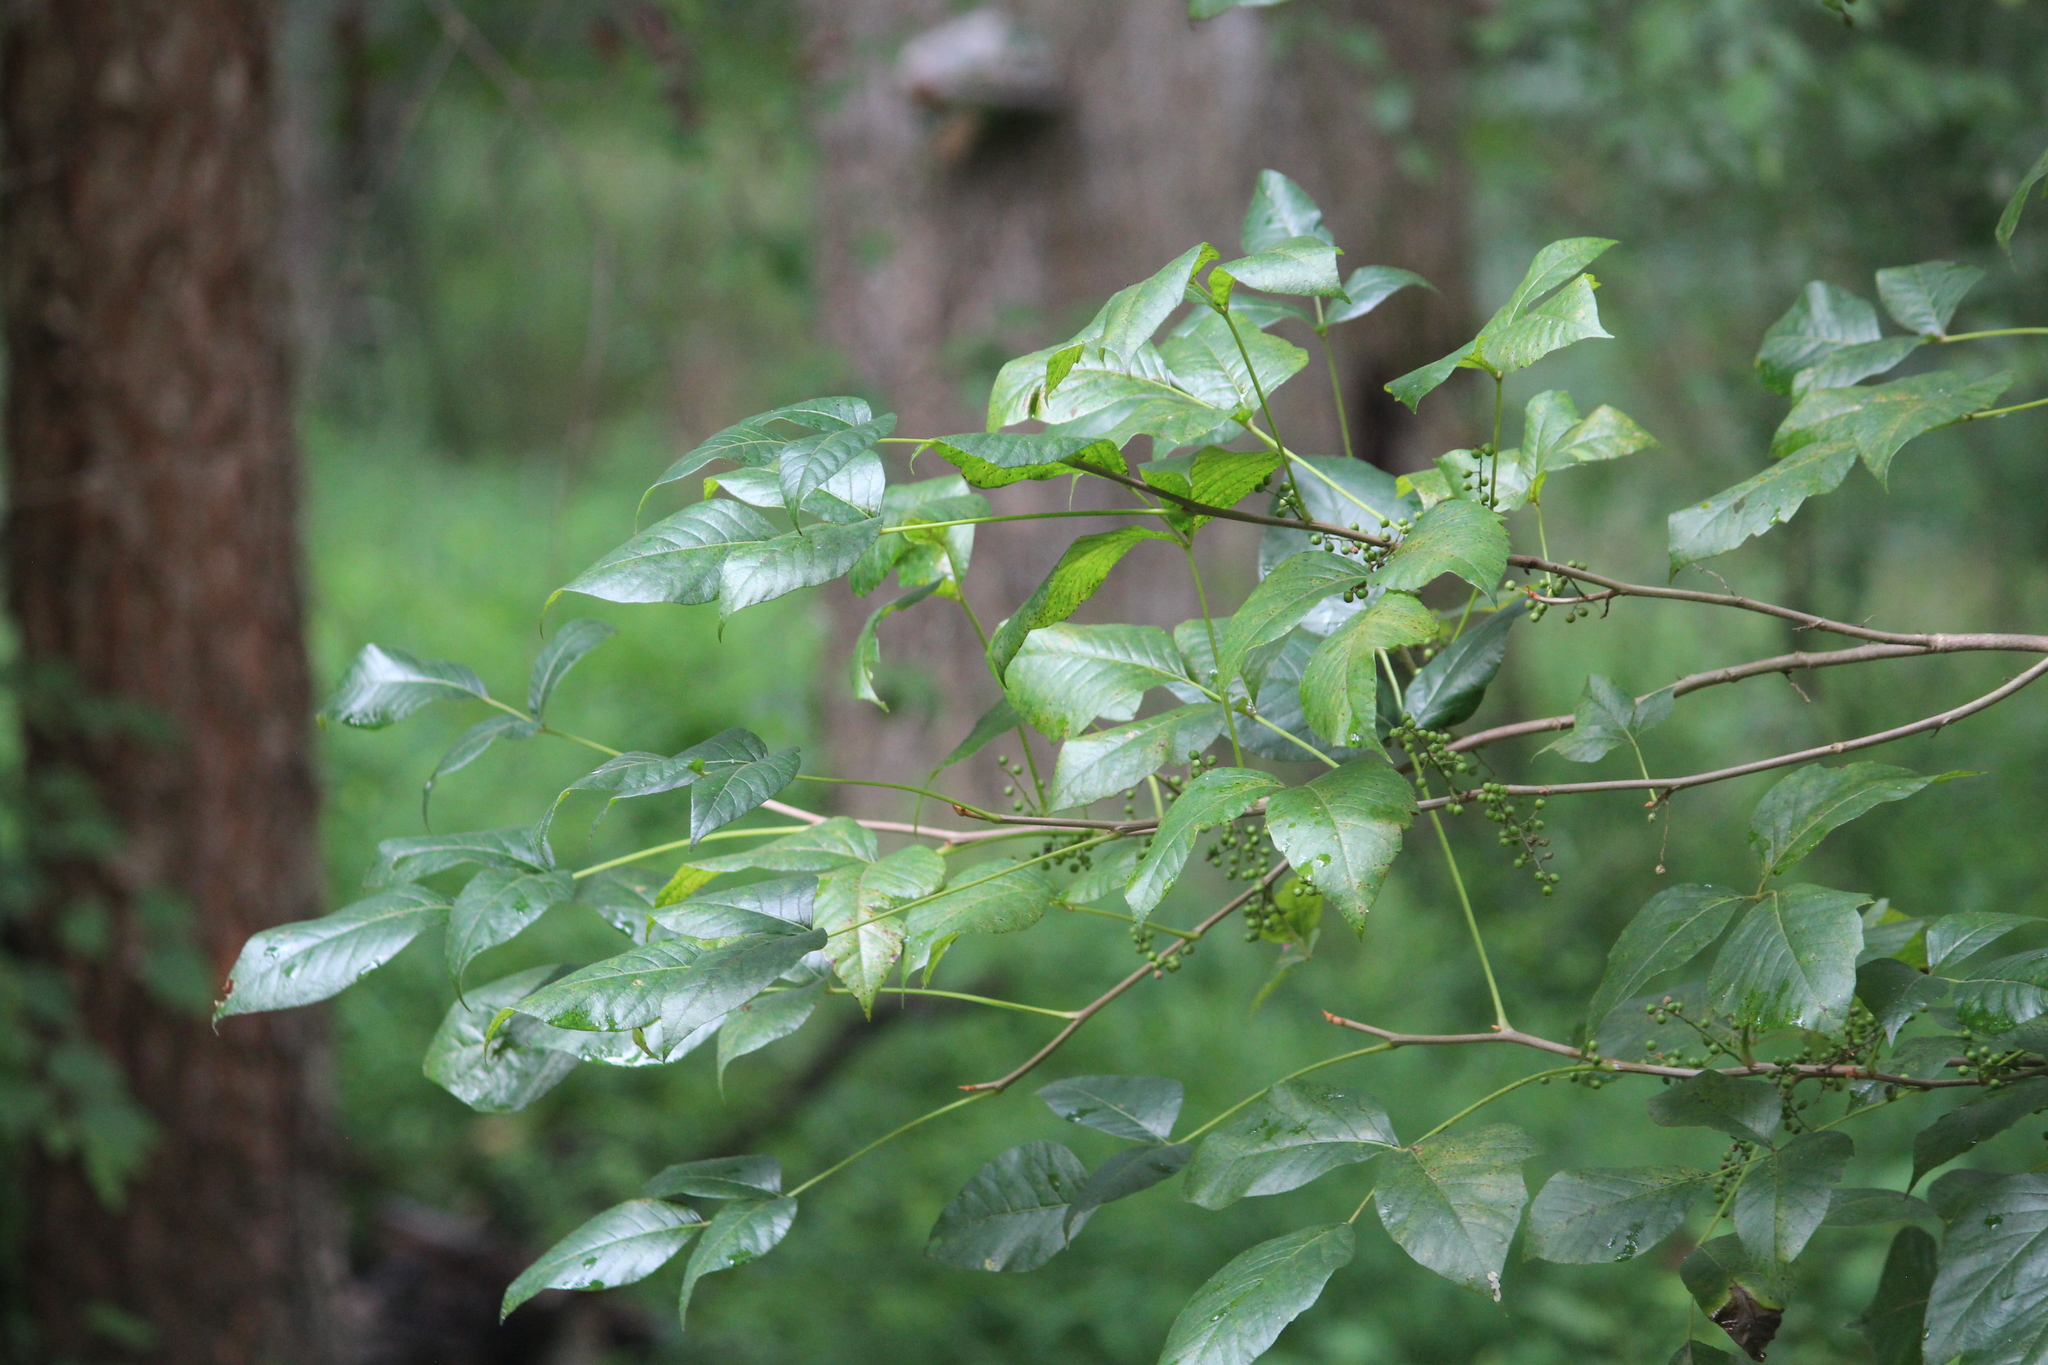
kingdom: Plantae
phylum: Tracheophyta
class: Magnoliopsida
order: Sapindales
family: Anacardiaceae
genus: Toxicodendron
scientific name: Toxicodendron radicans
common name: Poison ivy
